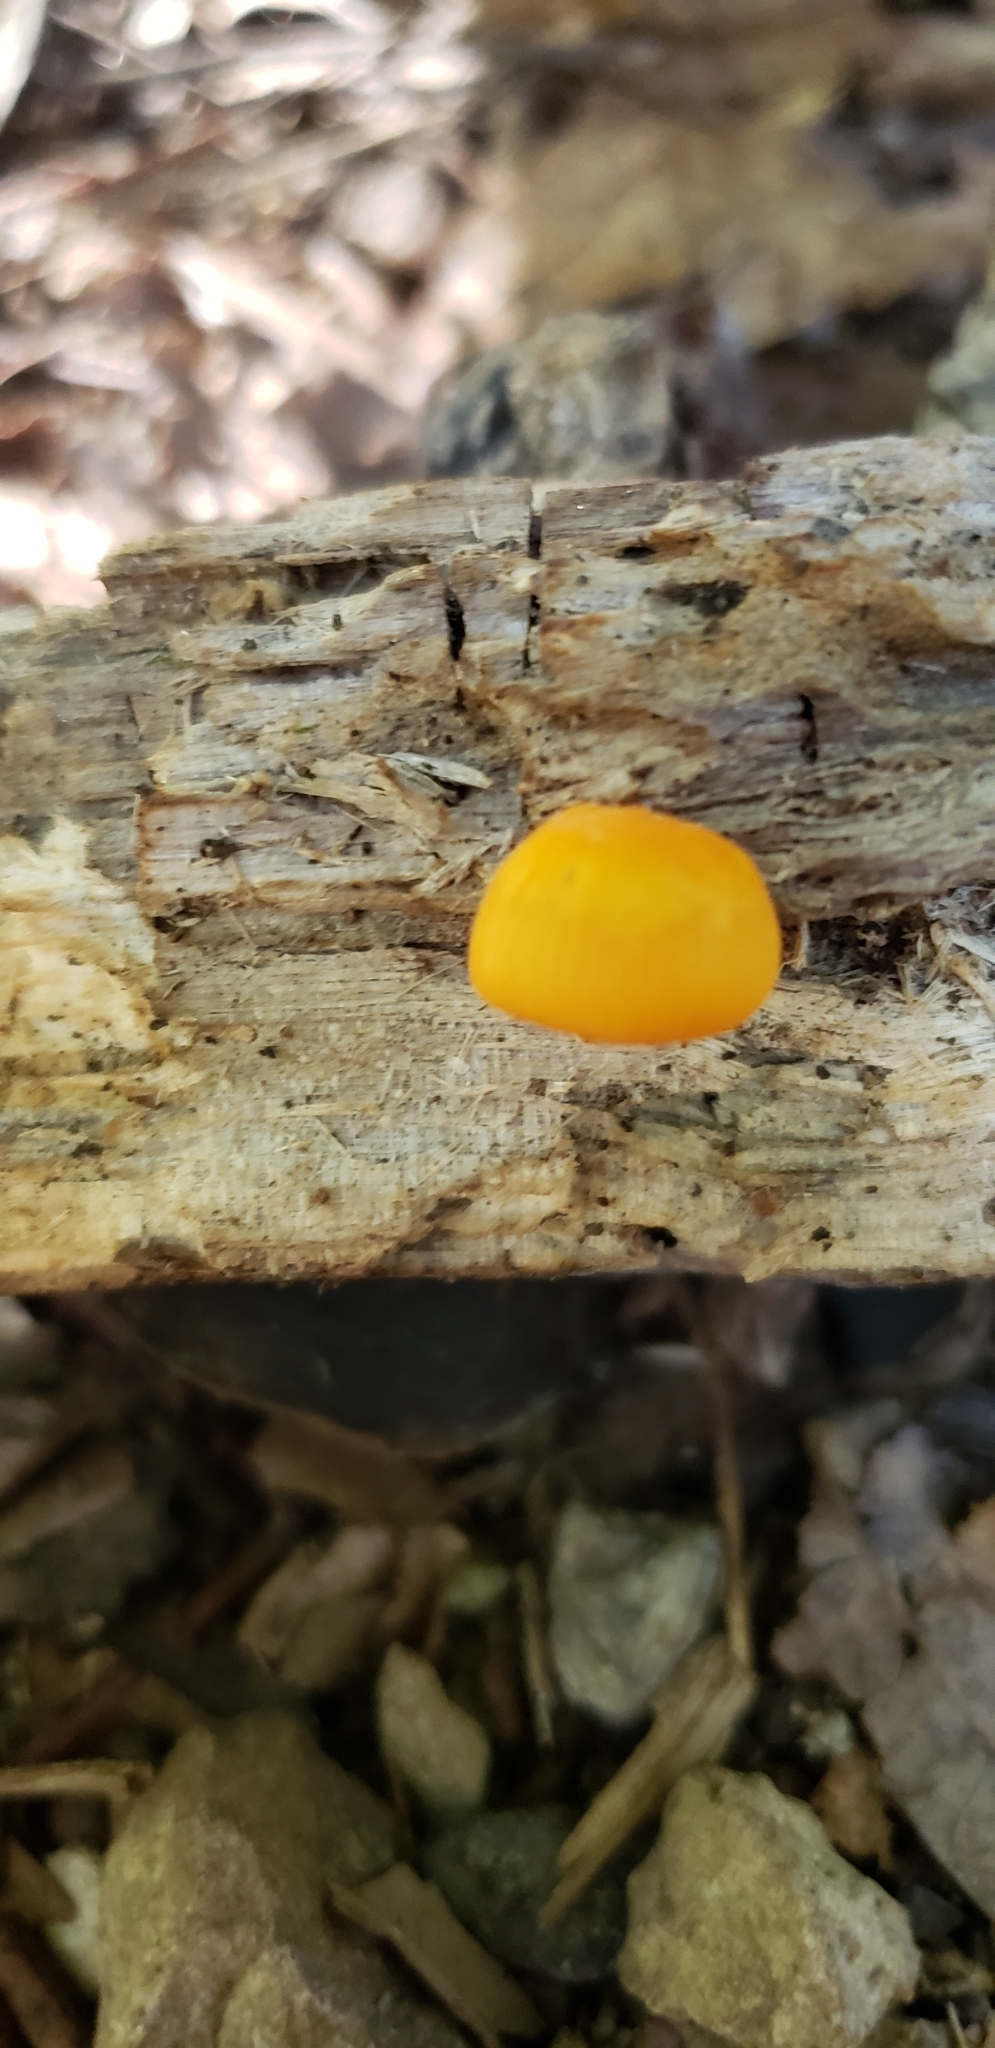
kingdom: Fungi
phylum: Basidiomycota
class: Agaricomycetes
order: Agaricales
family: Mycenaceae
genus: Mycena
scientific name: Mycena leaiana
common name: Orange mycena
